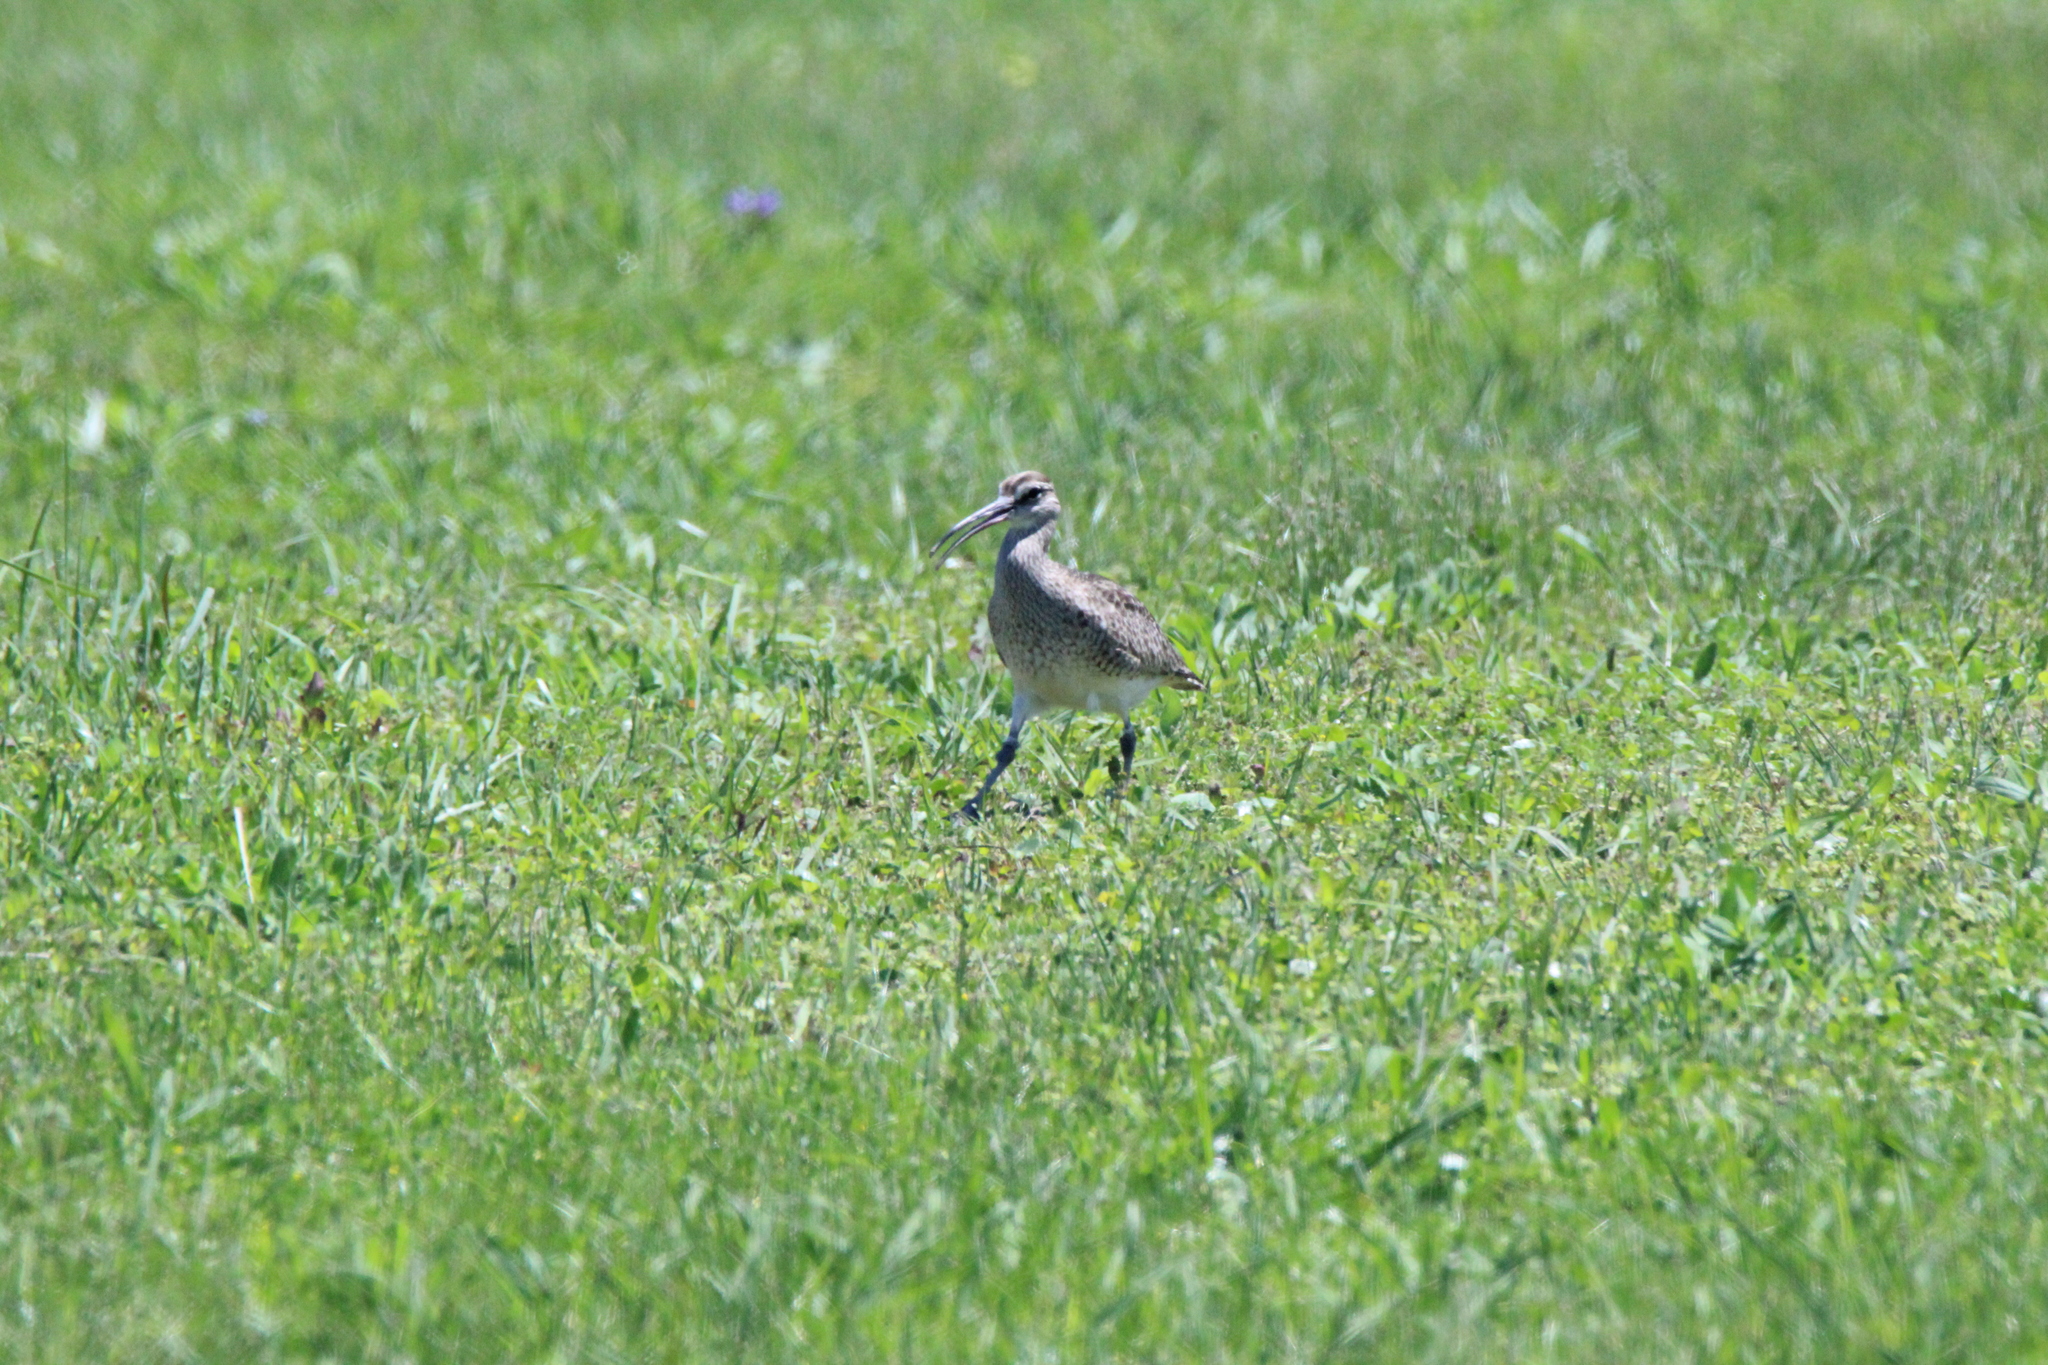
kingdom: Animalia
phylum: Chordata
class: Aves
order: Charadriiformes
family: Scolopacidae
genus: Numenius
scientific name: Numenius phaeopus
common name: Whimbrel
